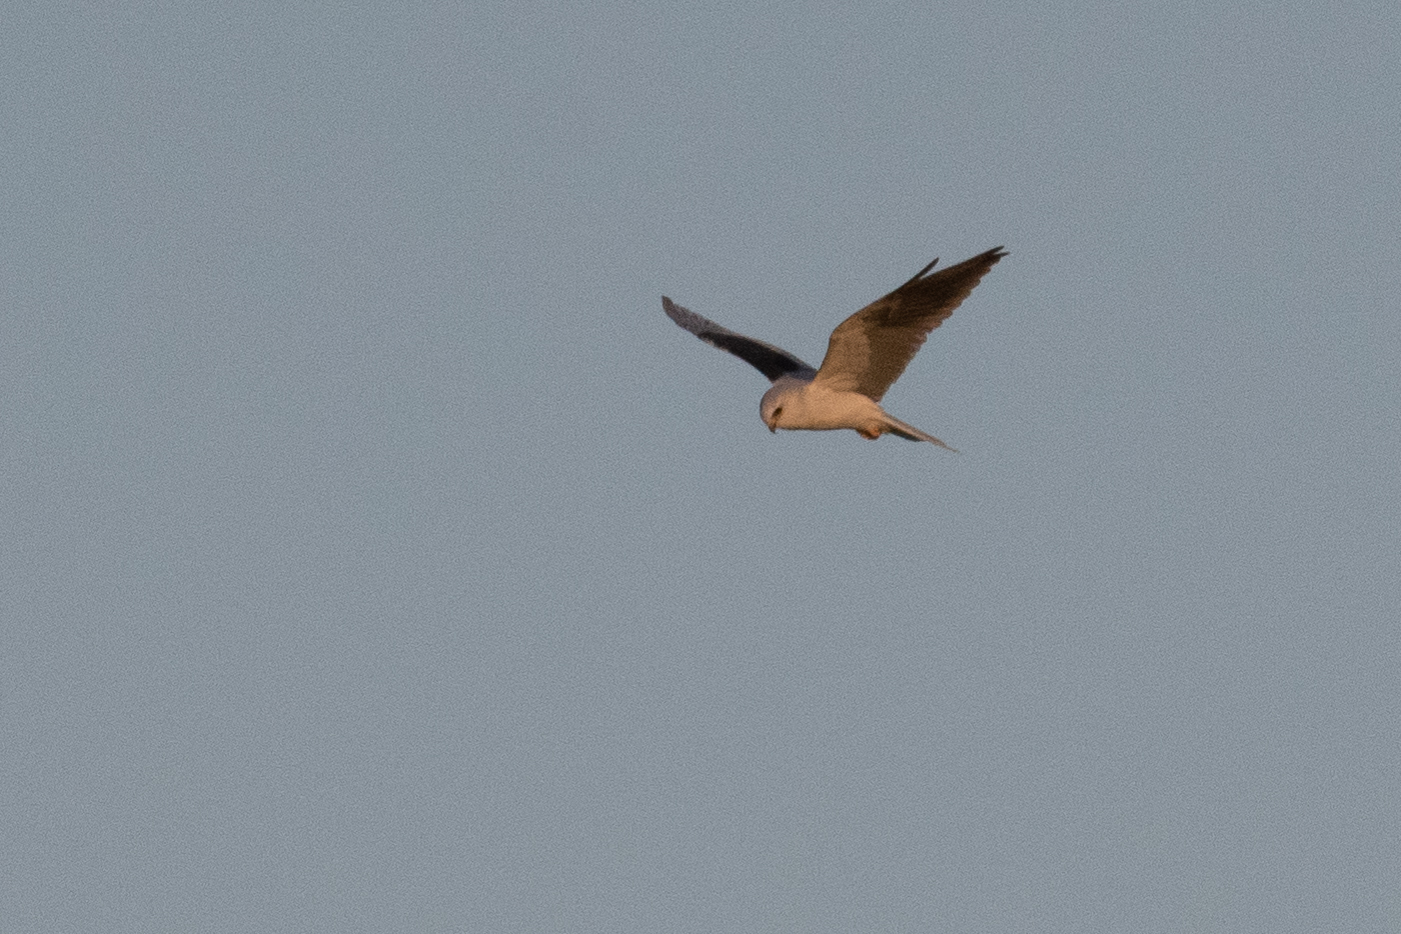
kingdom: Animalia
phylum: Chordata
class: Aves
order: Accipitriformes
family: Accipitridae
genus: Elanus
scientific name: Elanus leucurus
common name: White-tailed kite
